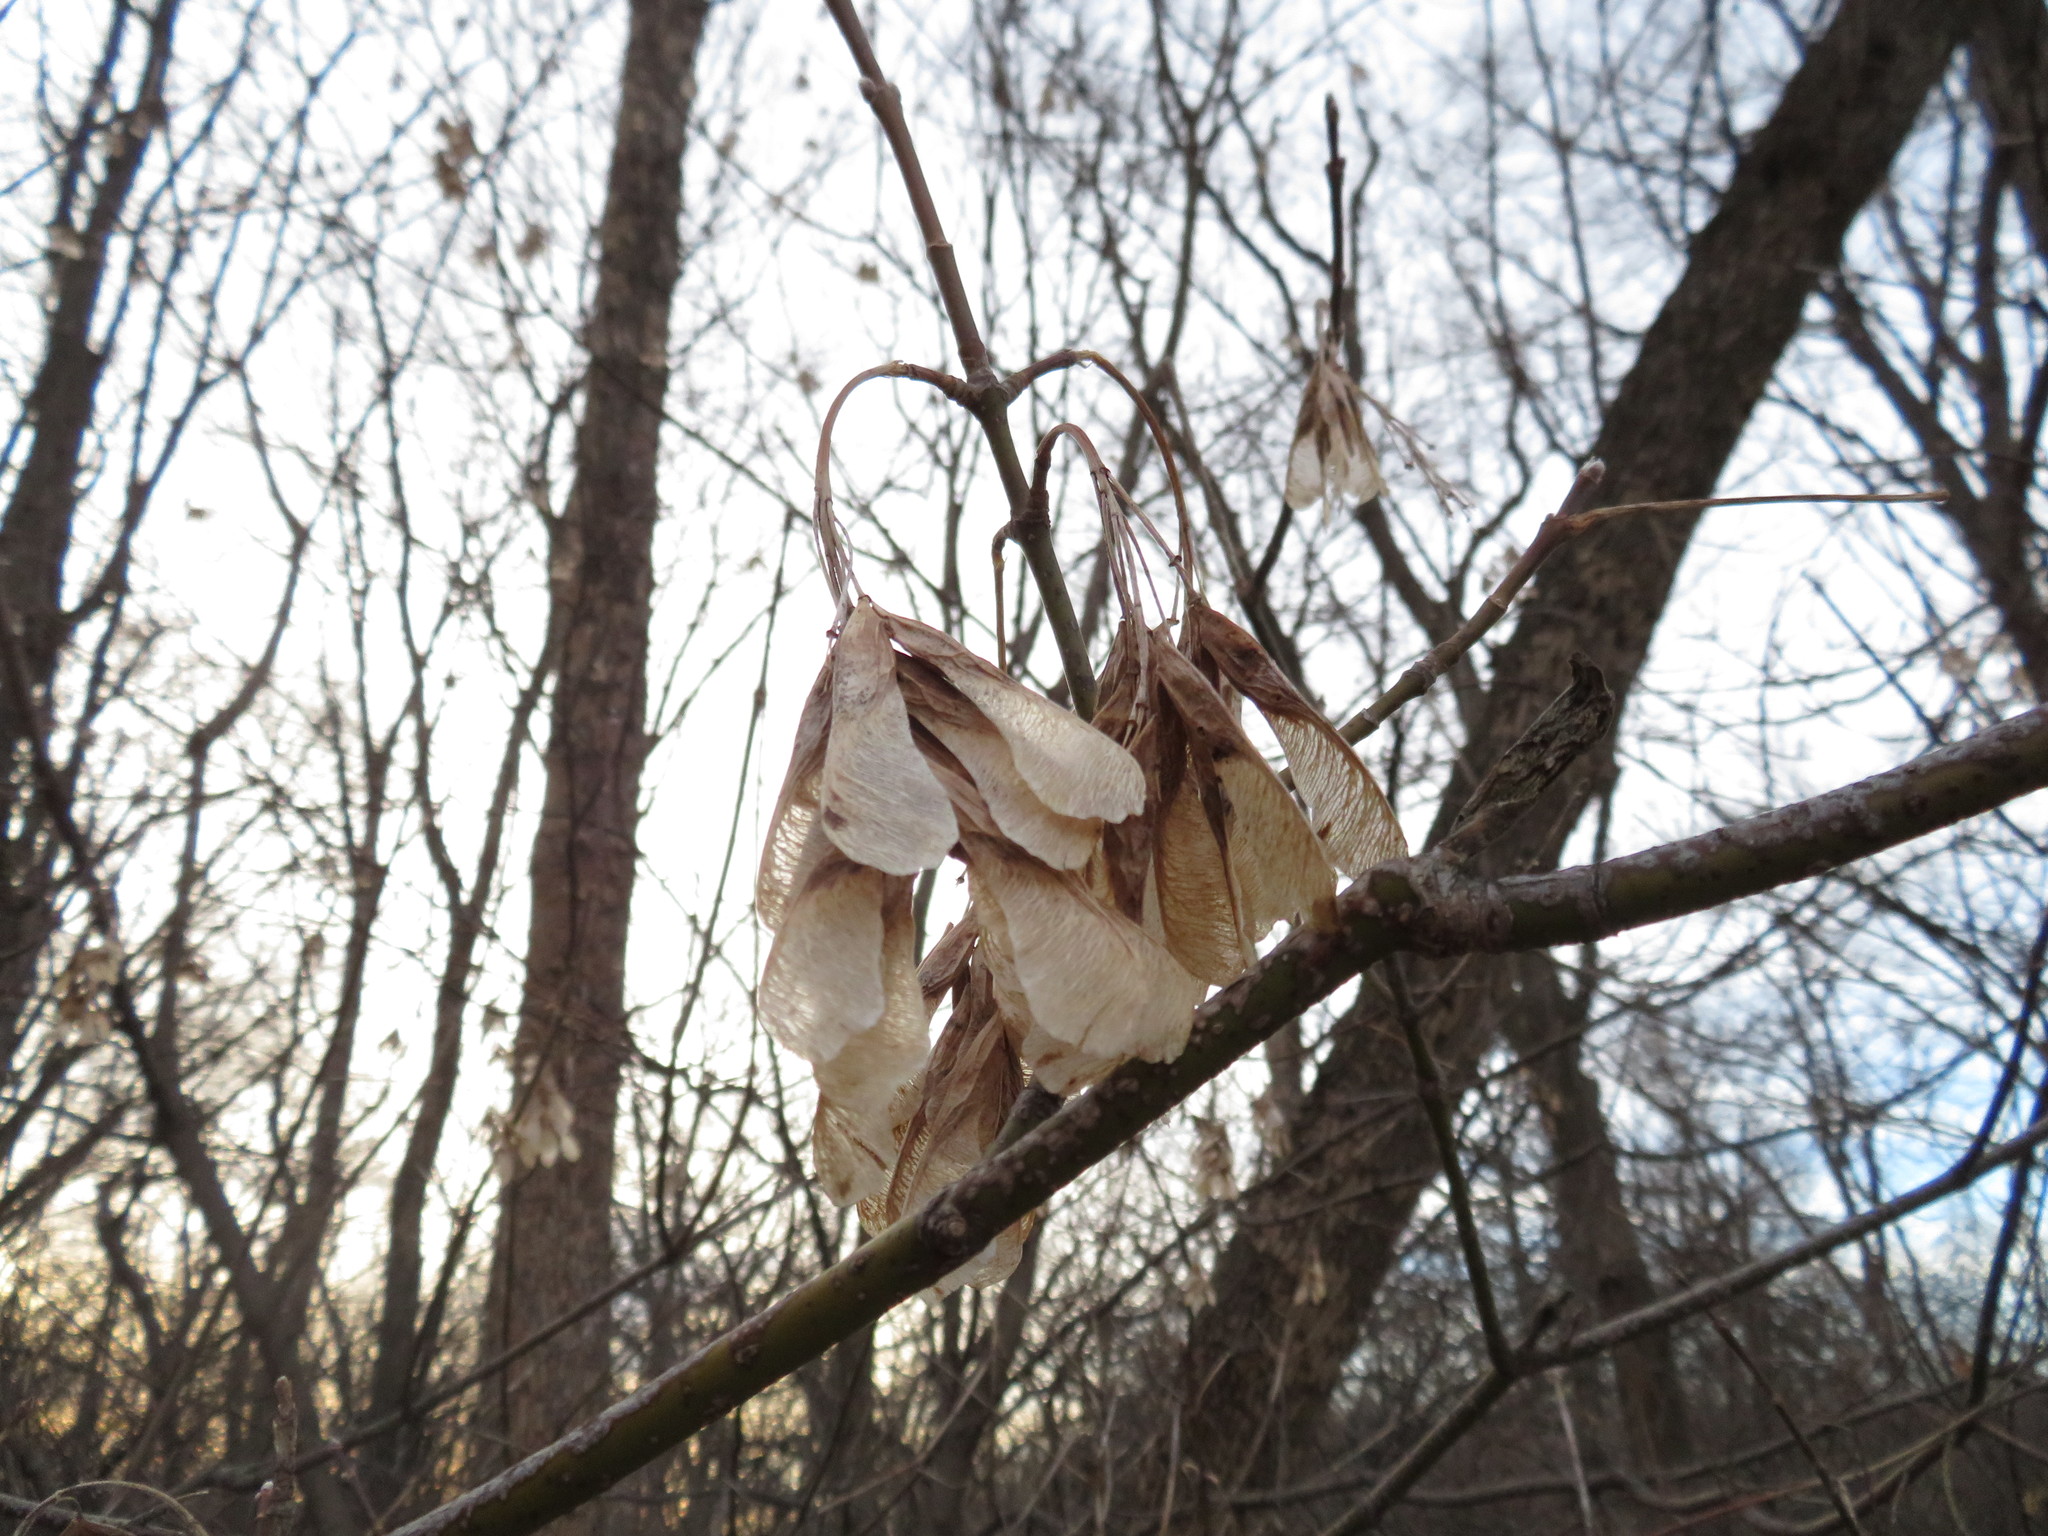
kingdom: Plantae
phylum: Tracheophyta
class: Magnoliopsida
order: Sapindales
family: Sapindaceae
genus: Acer
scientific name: Acer platanoides
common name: Norway maple
